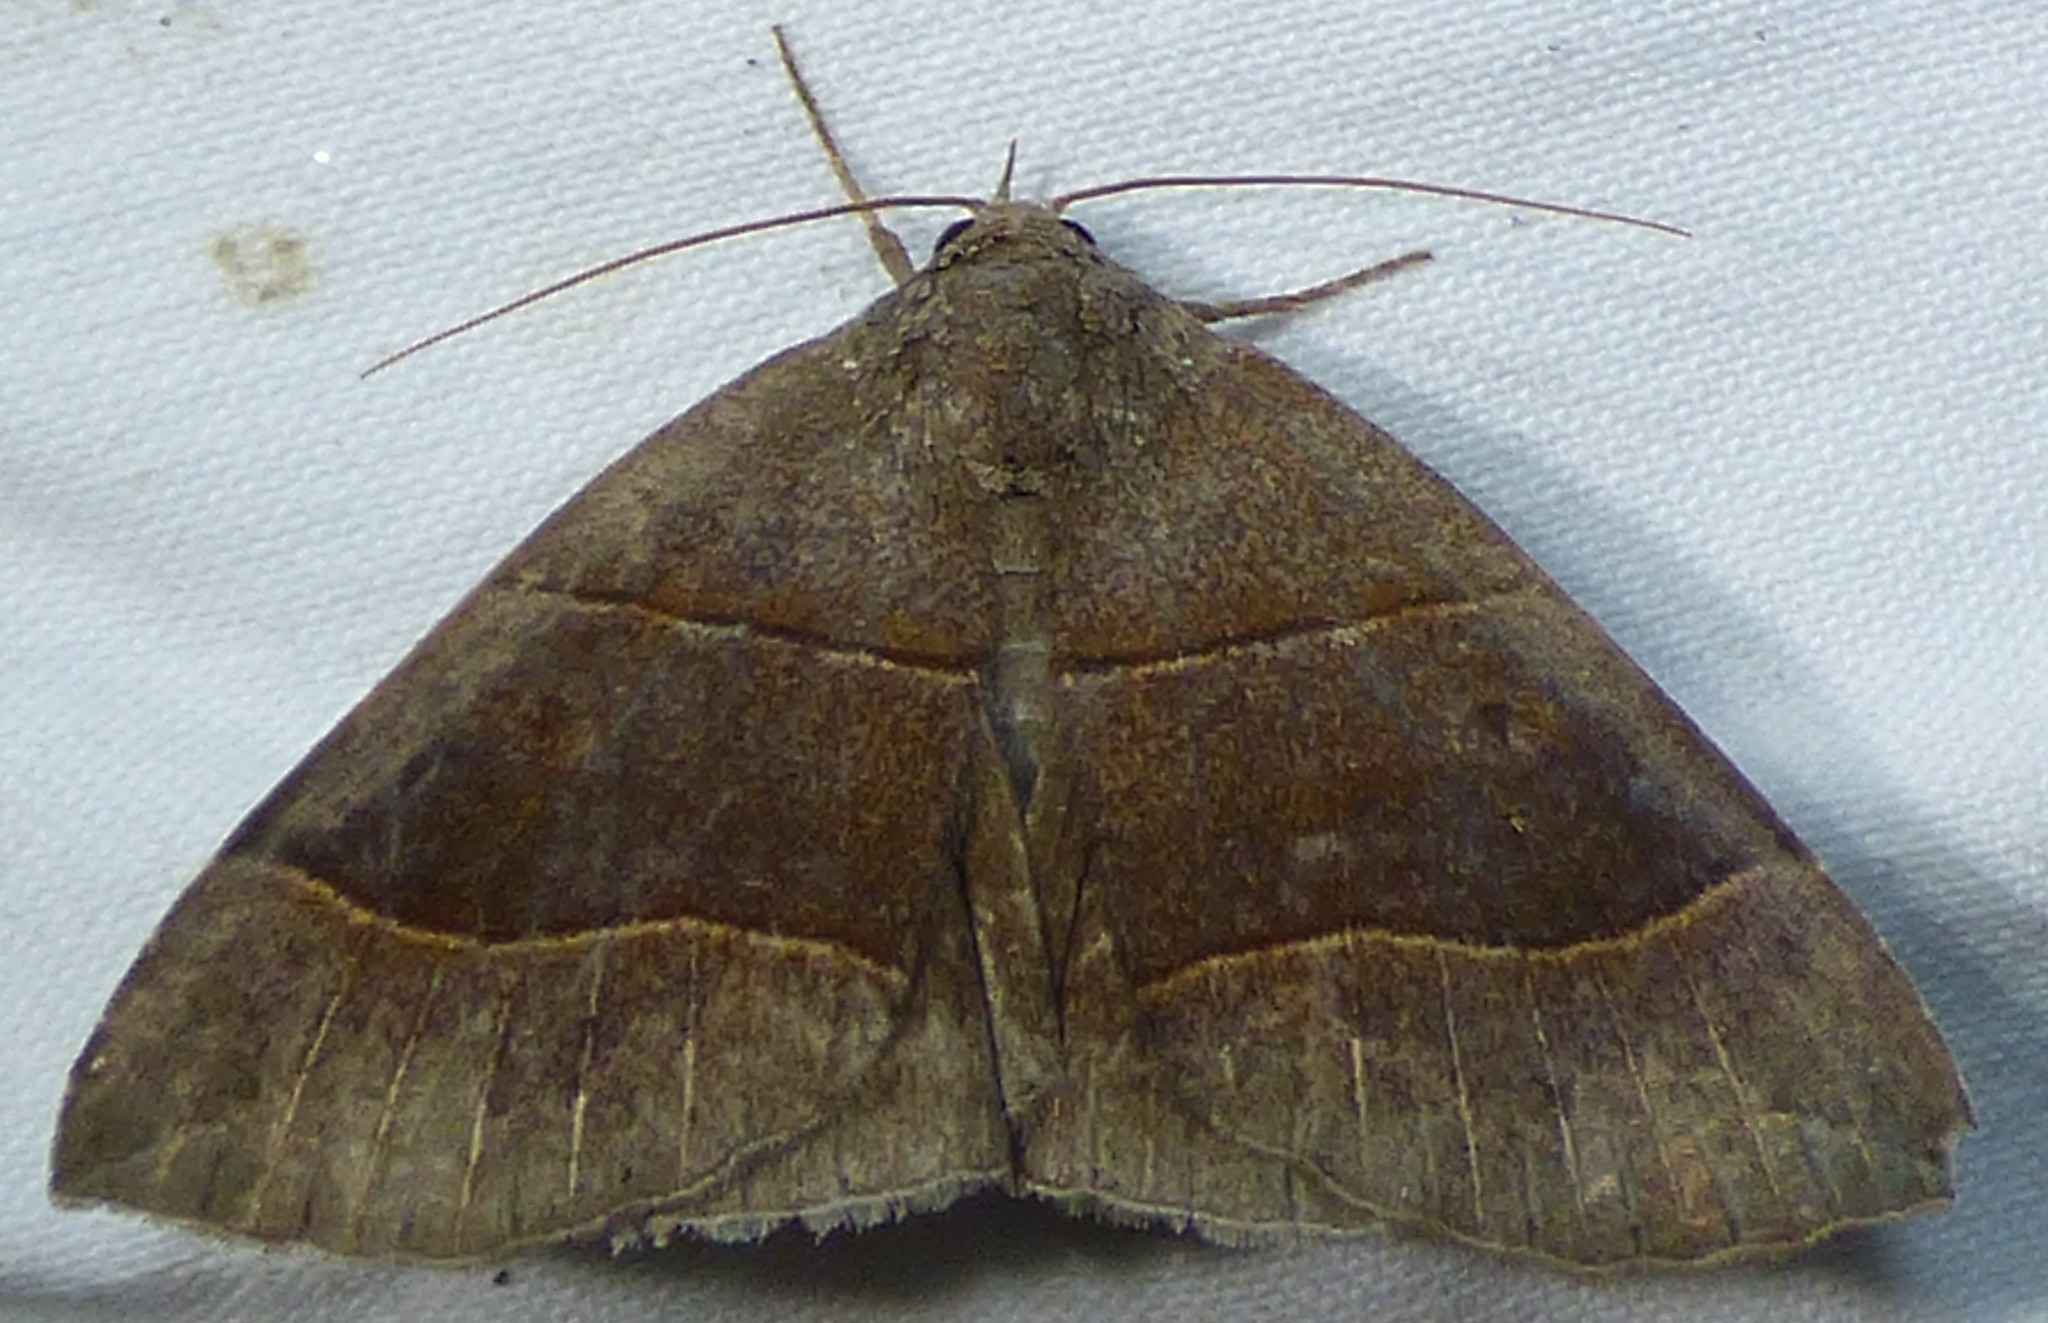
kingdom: Animalia
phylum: Arthropoda
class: Insecta
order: Lepidoptera
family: Erebidae
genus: Parallelia
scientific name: Parallelia bistriaris
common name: Maple looper moth
